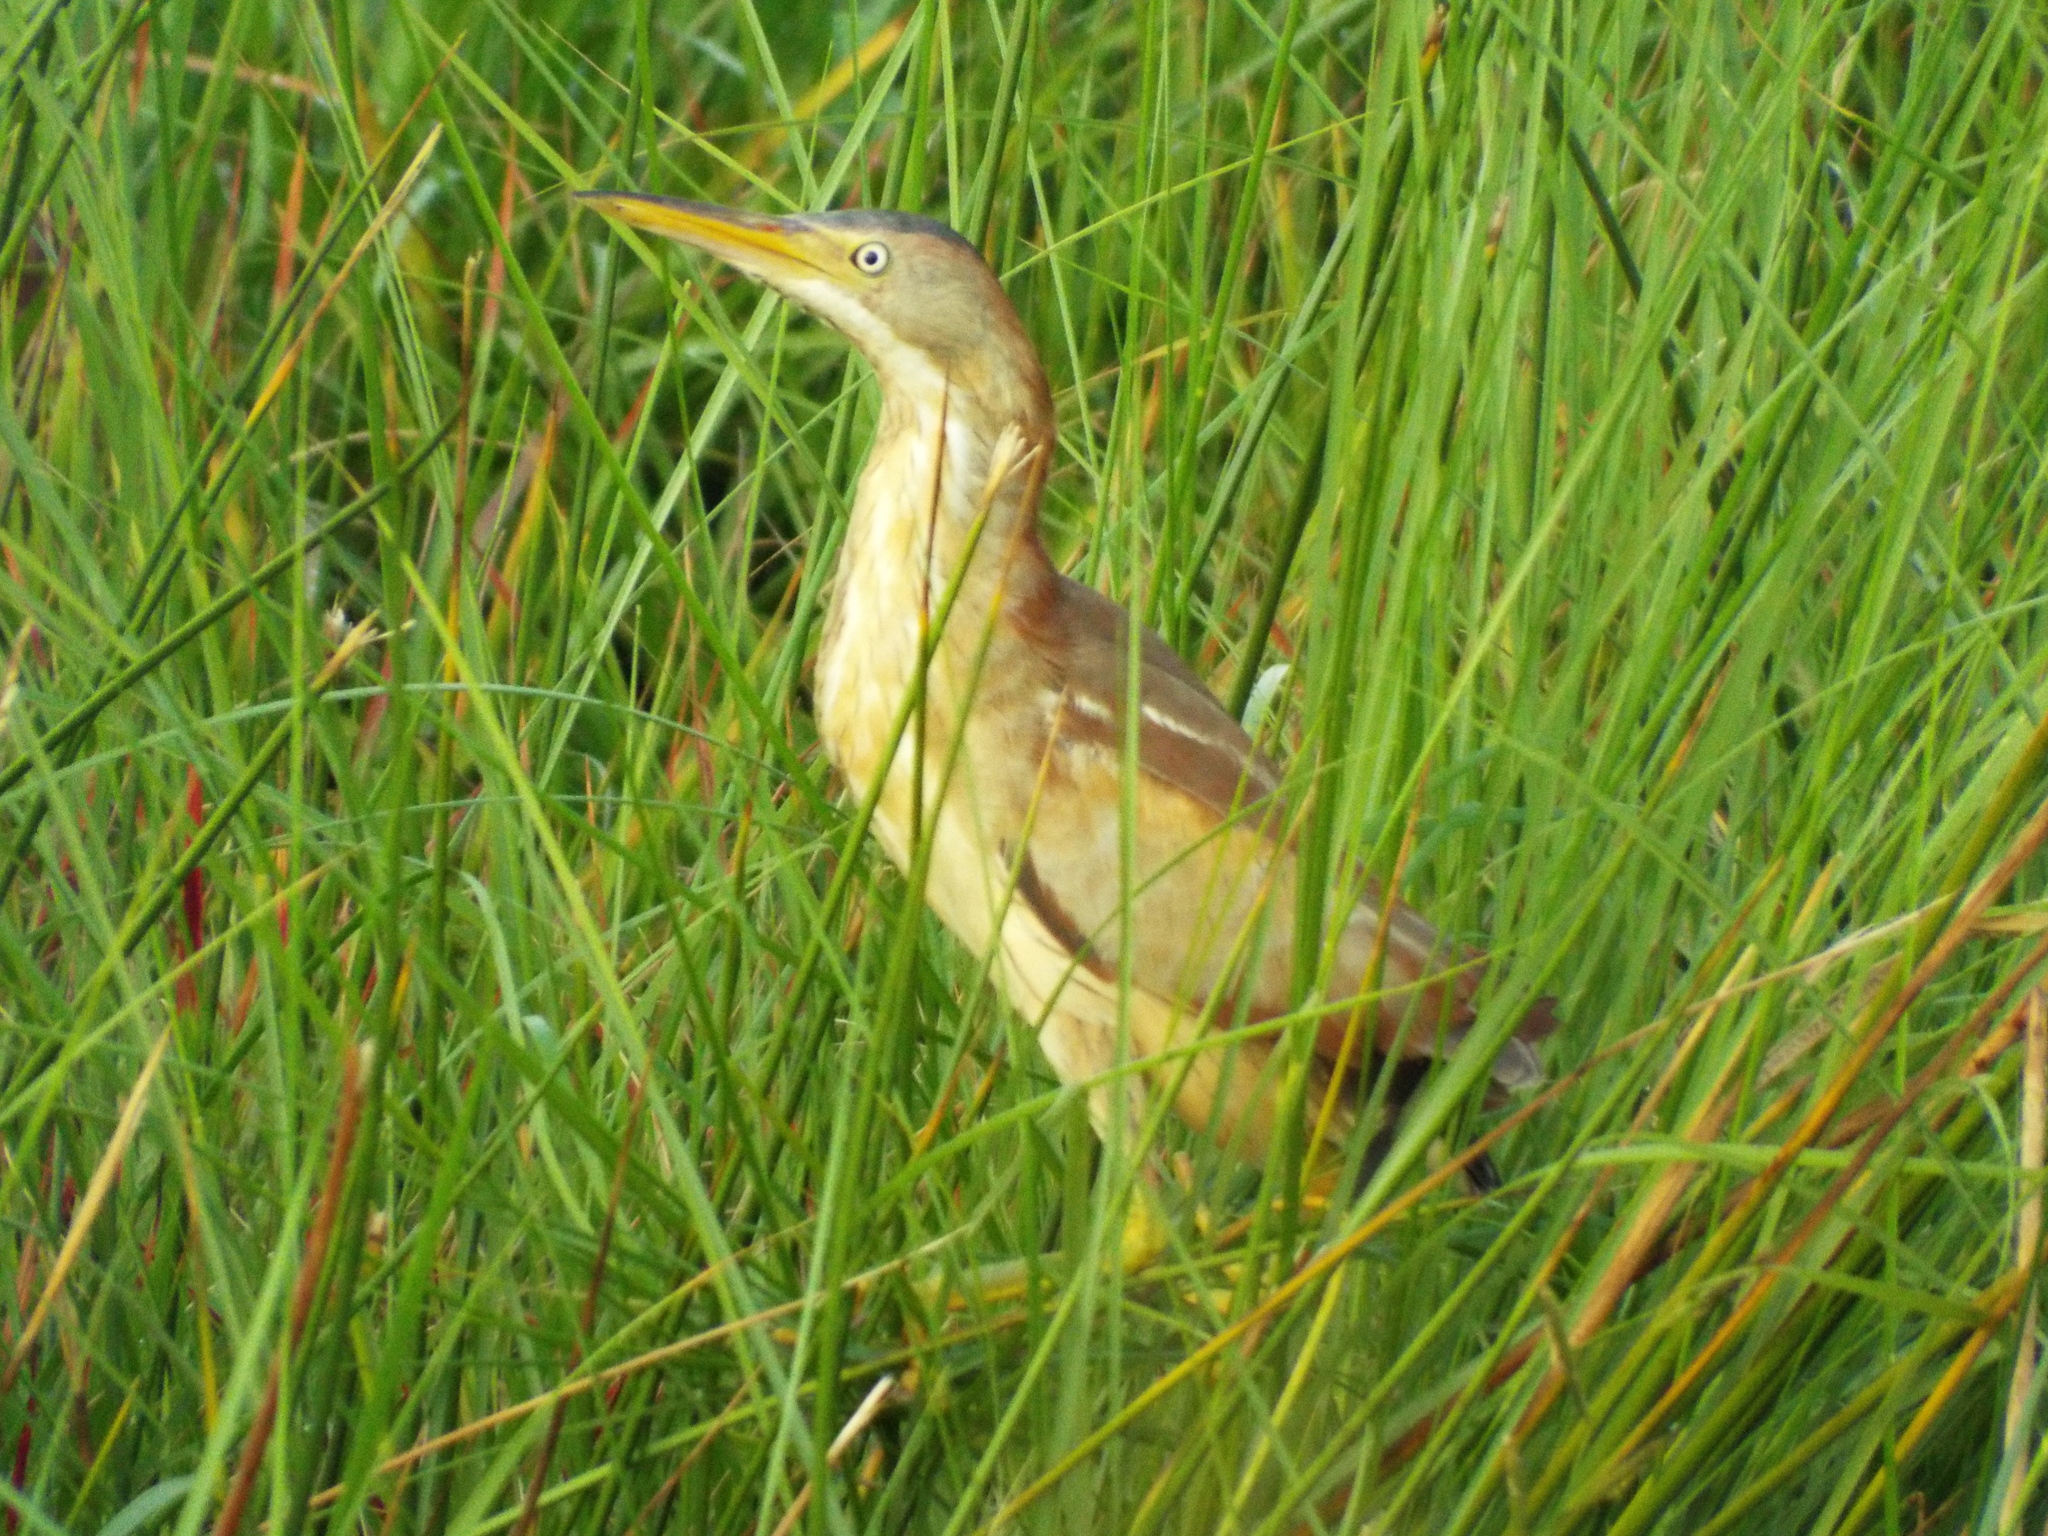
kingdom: Animalia
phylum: Chordata
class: Aves
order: Pelecaniformes
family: Ardeidae
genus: Ixobrychus
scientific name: Ixobrychus exilis
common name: Least bittern
